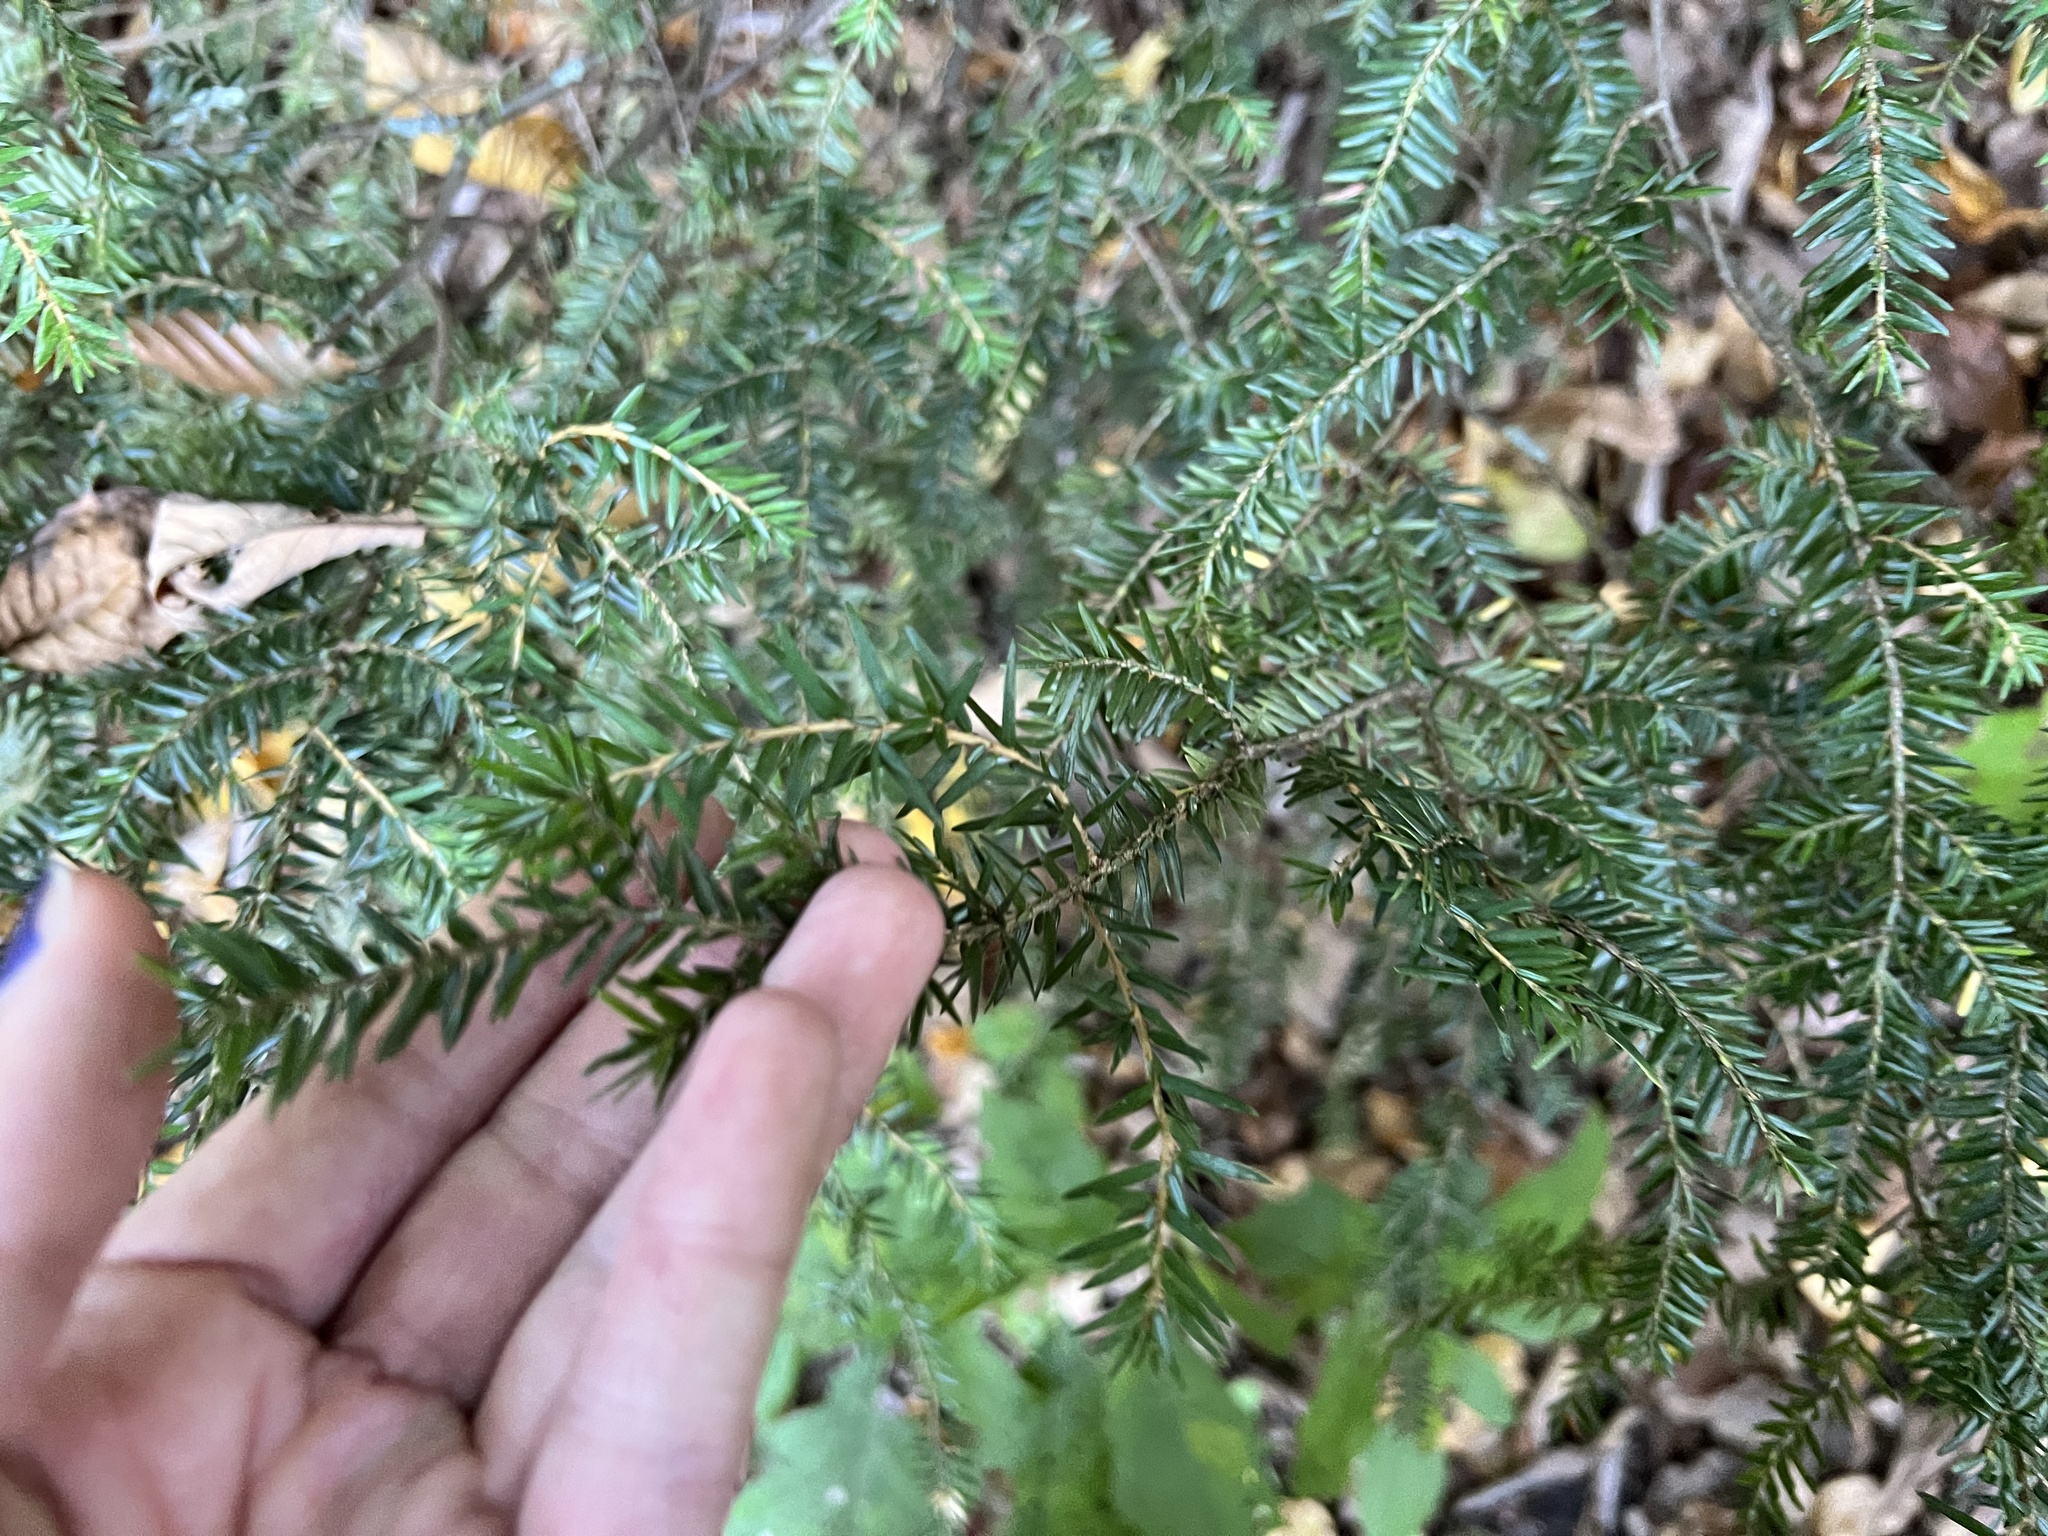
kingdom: Plantae
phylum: Tracheophyta
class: Pinopsida
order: Pinales
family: Pinaceae
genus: Tsuga
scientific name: Tsuga canadensis
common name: Eastern hemlock
